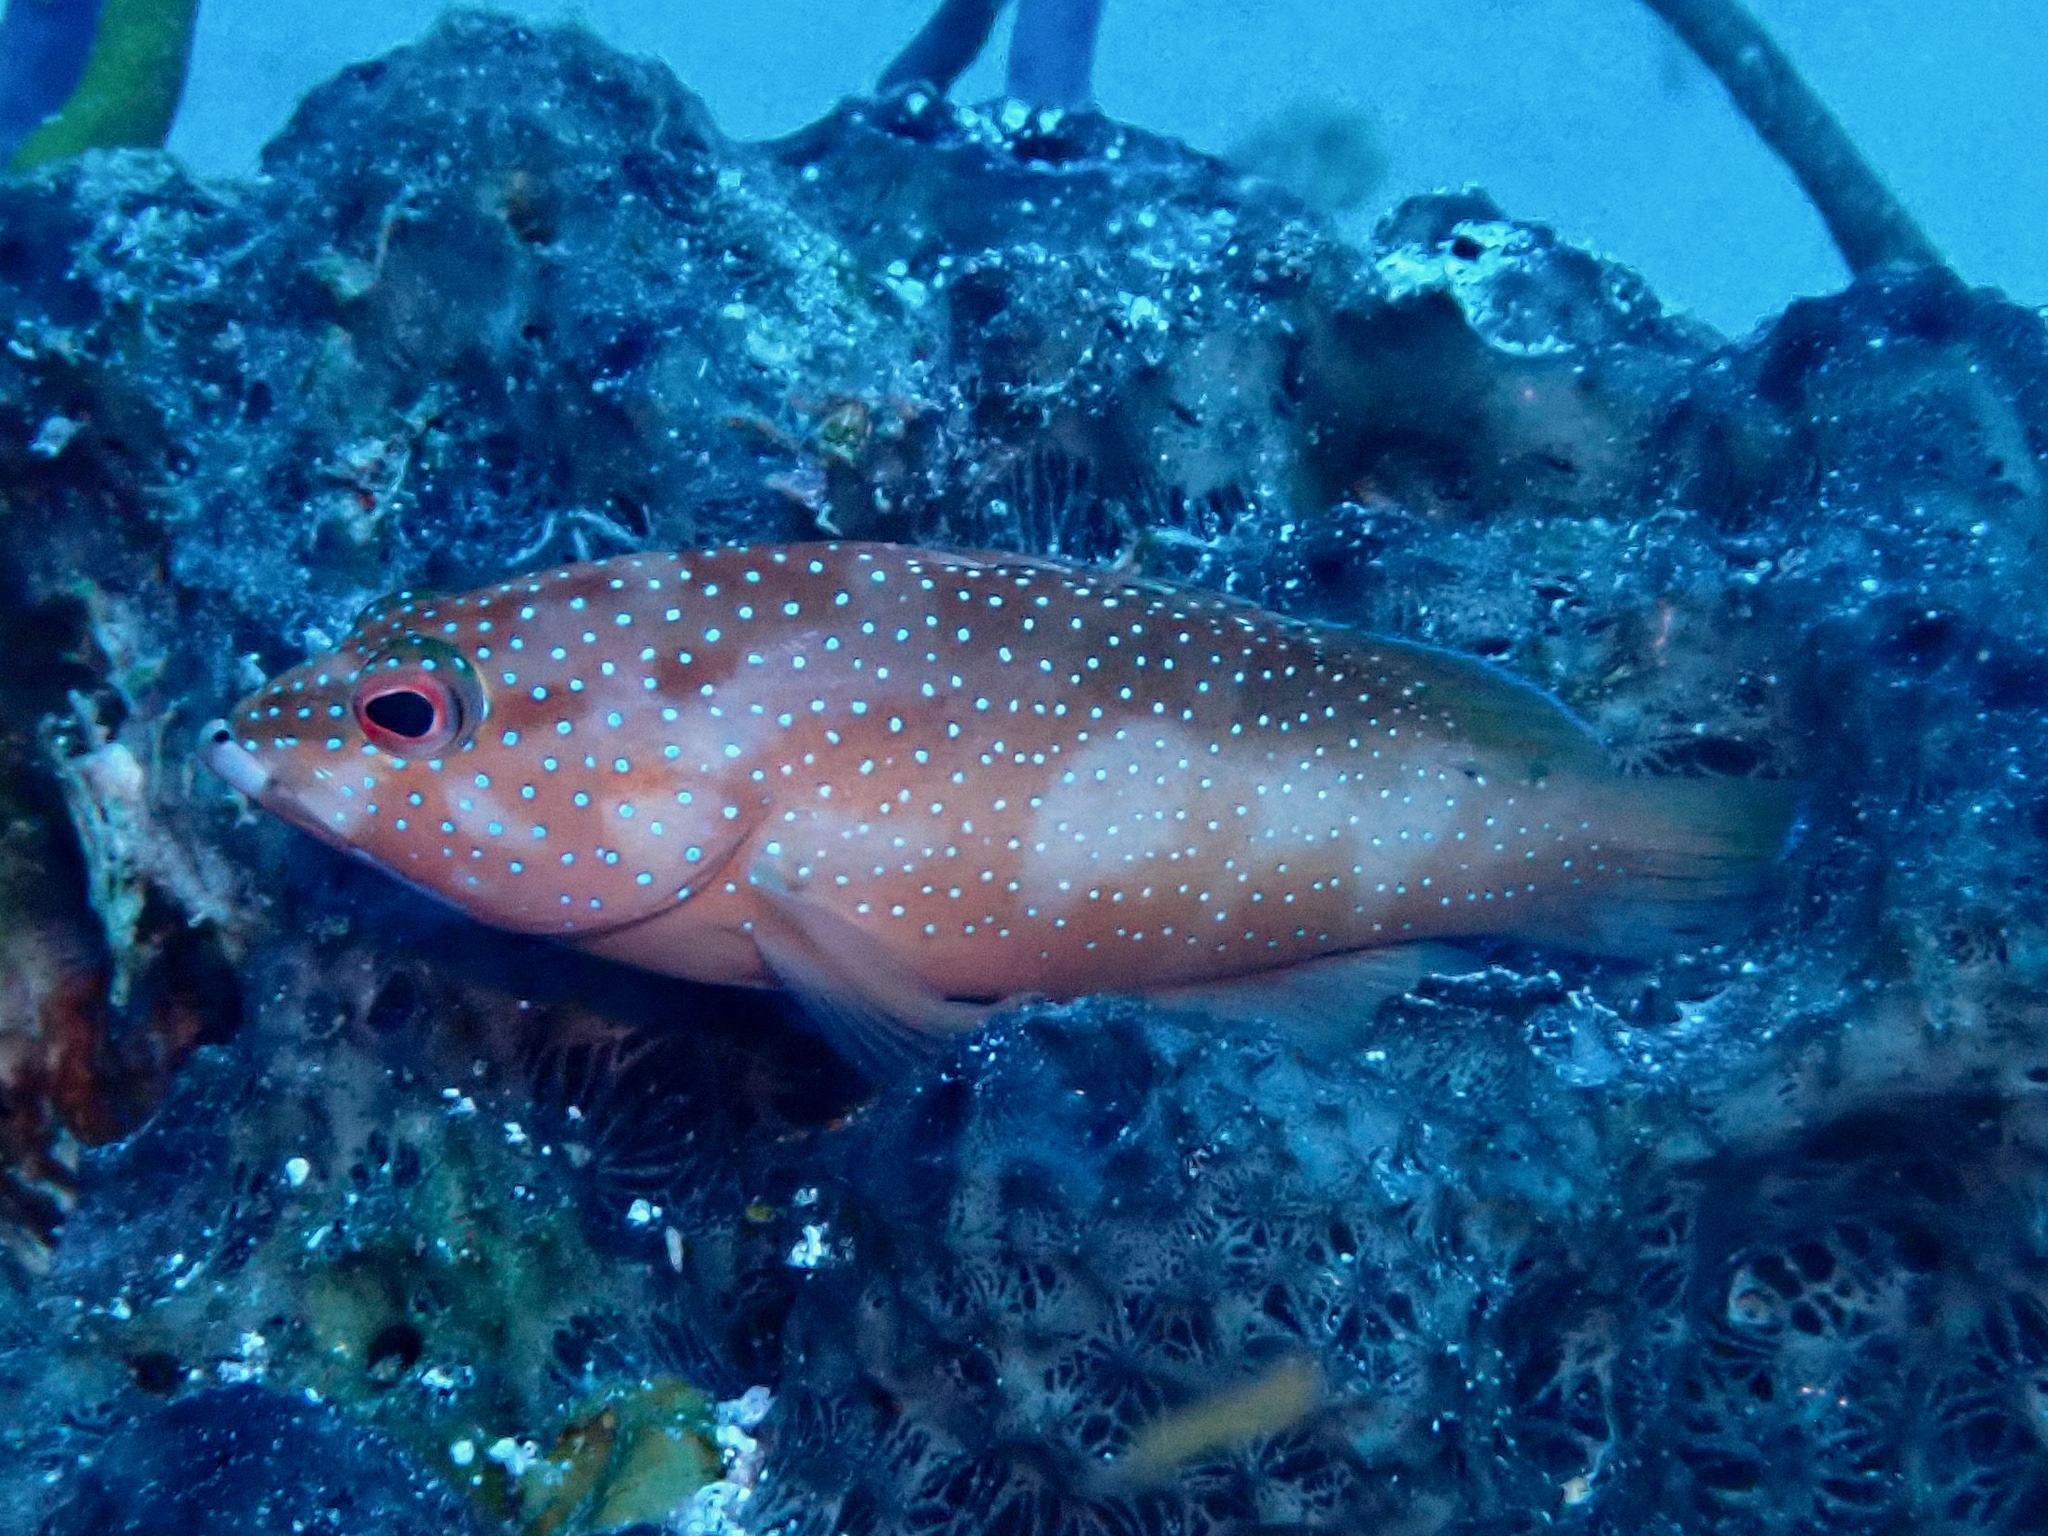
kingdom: Animalia
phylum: Chordata
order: Perciformes
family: Serranidae
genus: Cephalopholis
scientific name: Cephalopholis fulva
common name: Butterfish
